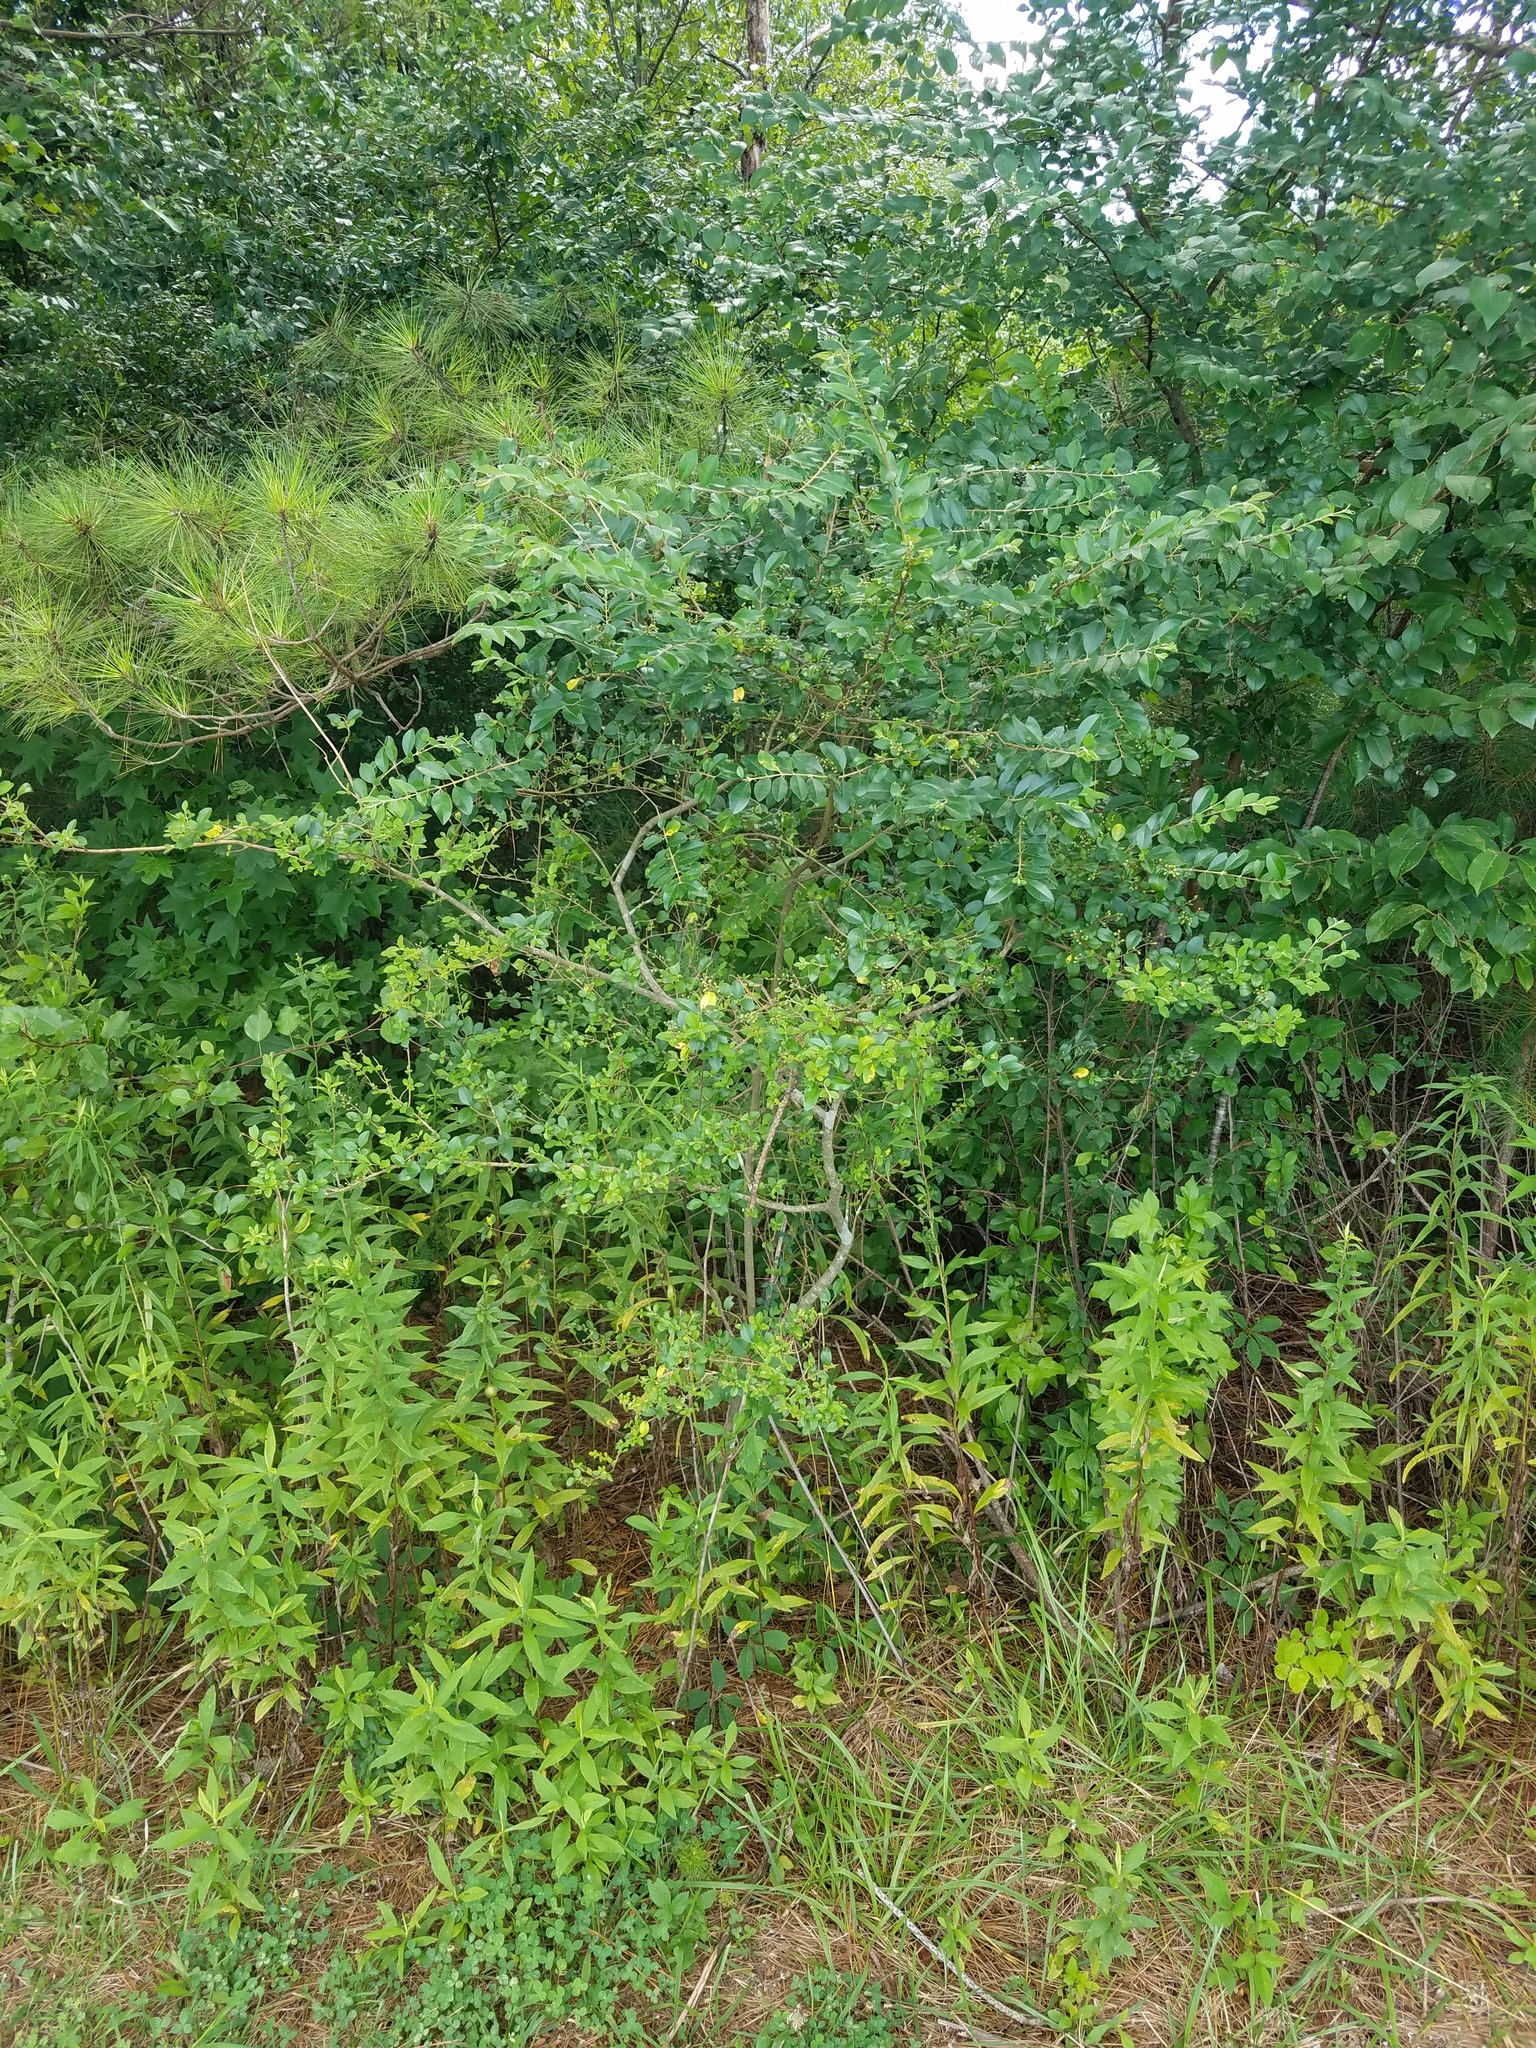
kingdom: Plantae
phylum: Tracheophyta
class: Magnoliopsida
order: Lamiales
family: Oleaceae
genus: Ligustrum
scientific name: Ligustrum sinense
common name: Chinese privet
